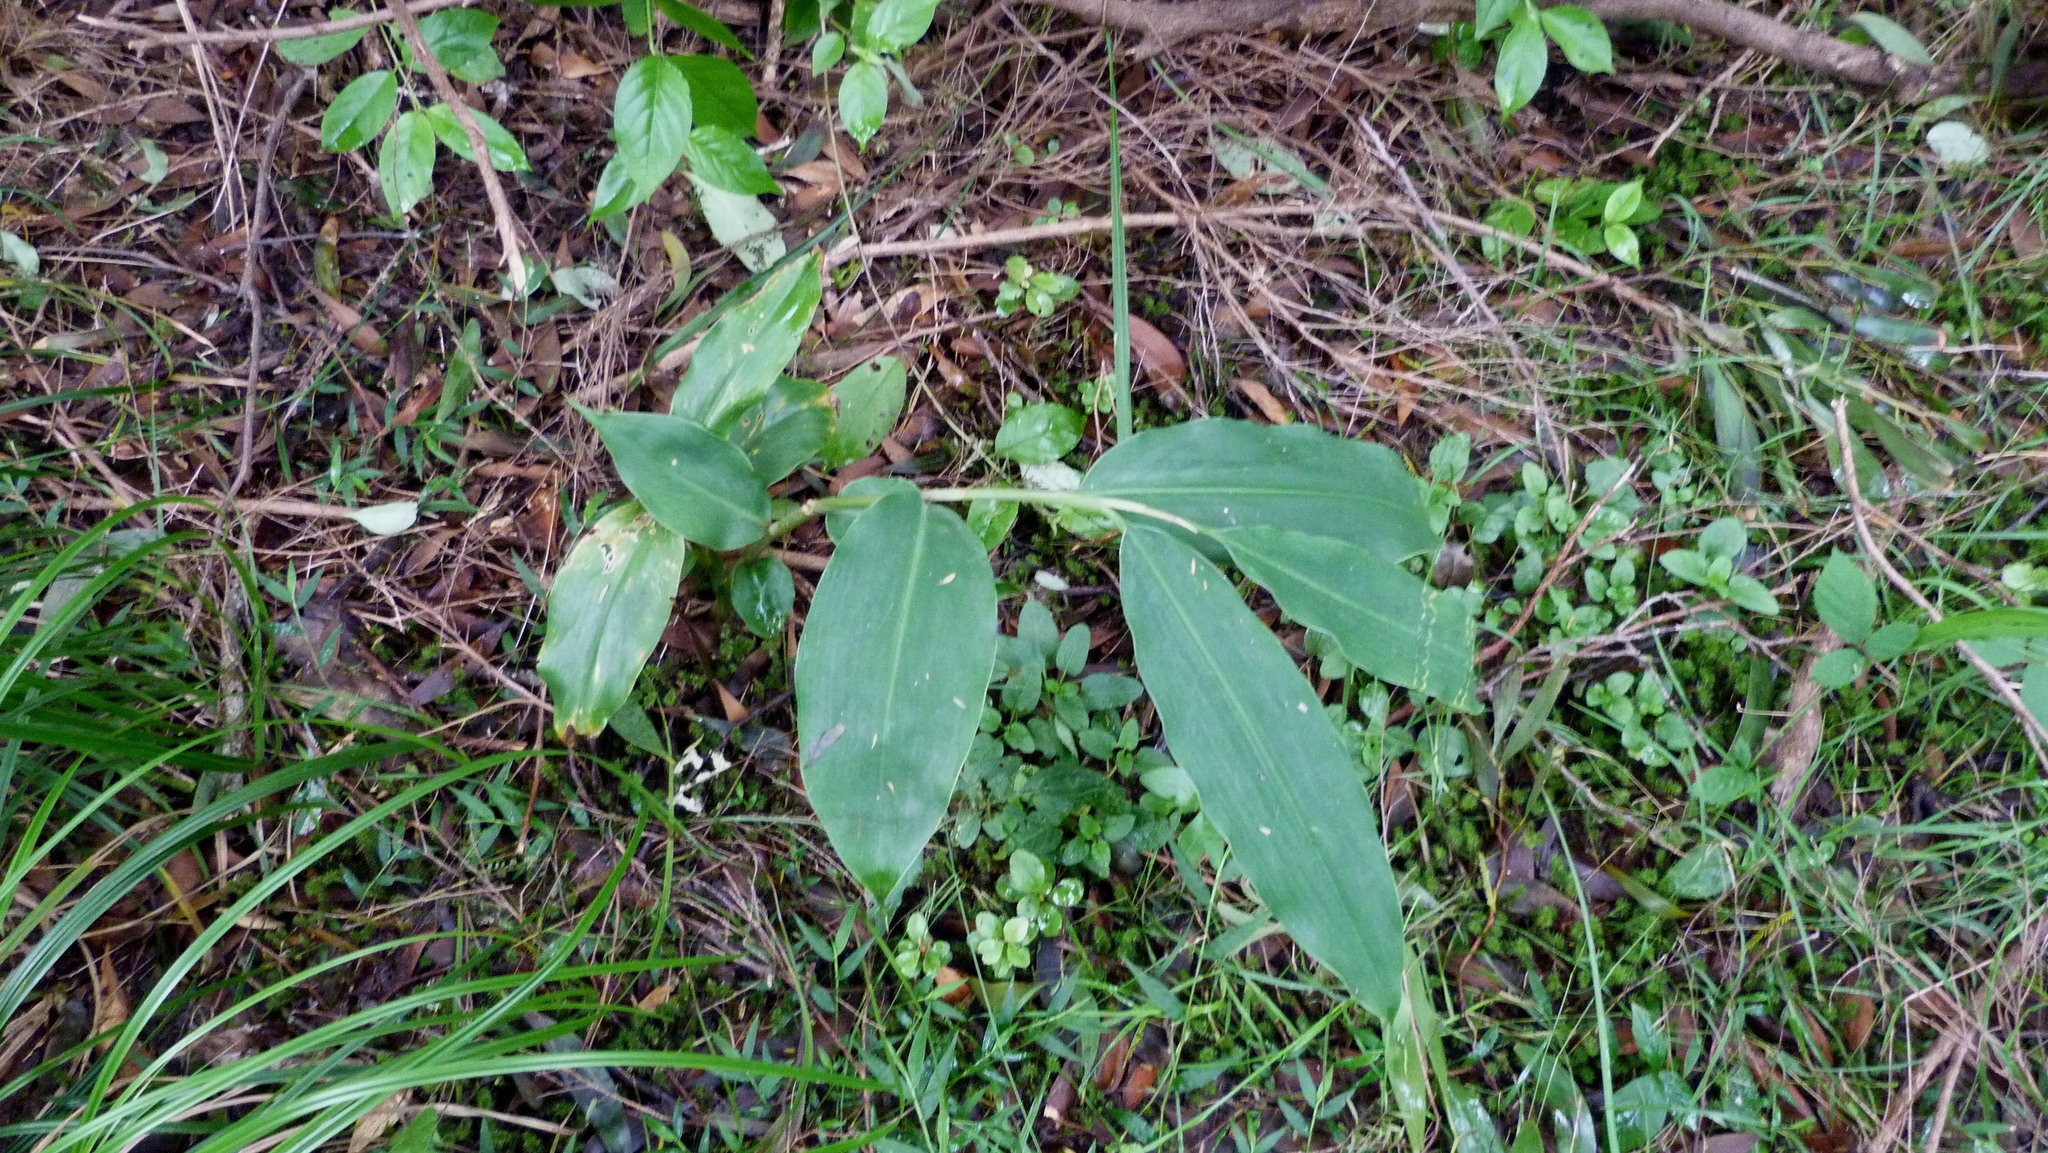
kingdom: Plantae
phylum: Tracheophyta
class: Liliopsida
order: Zingiberales
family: Zingiberaceae
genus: Hedychium
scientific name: Hedychium gardnerianum
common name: Himalayan ginger
